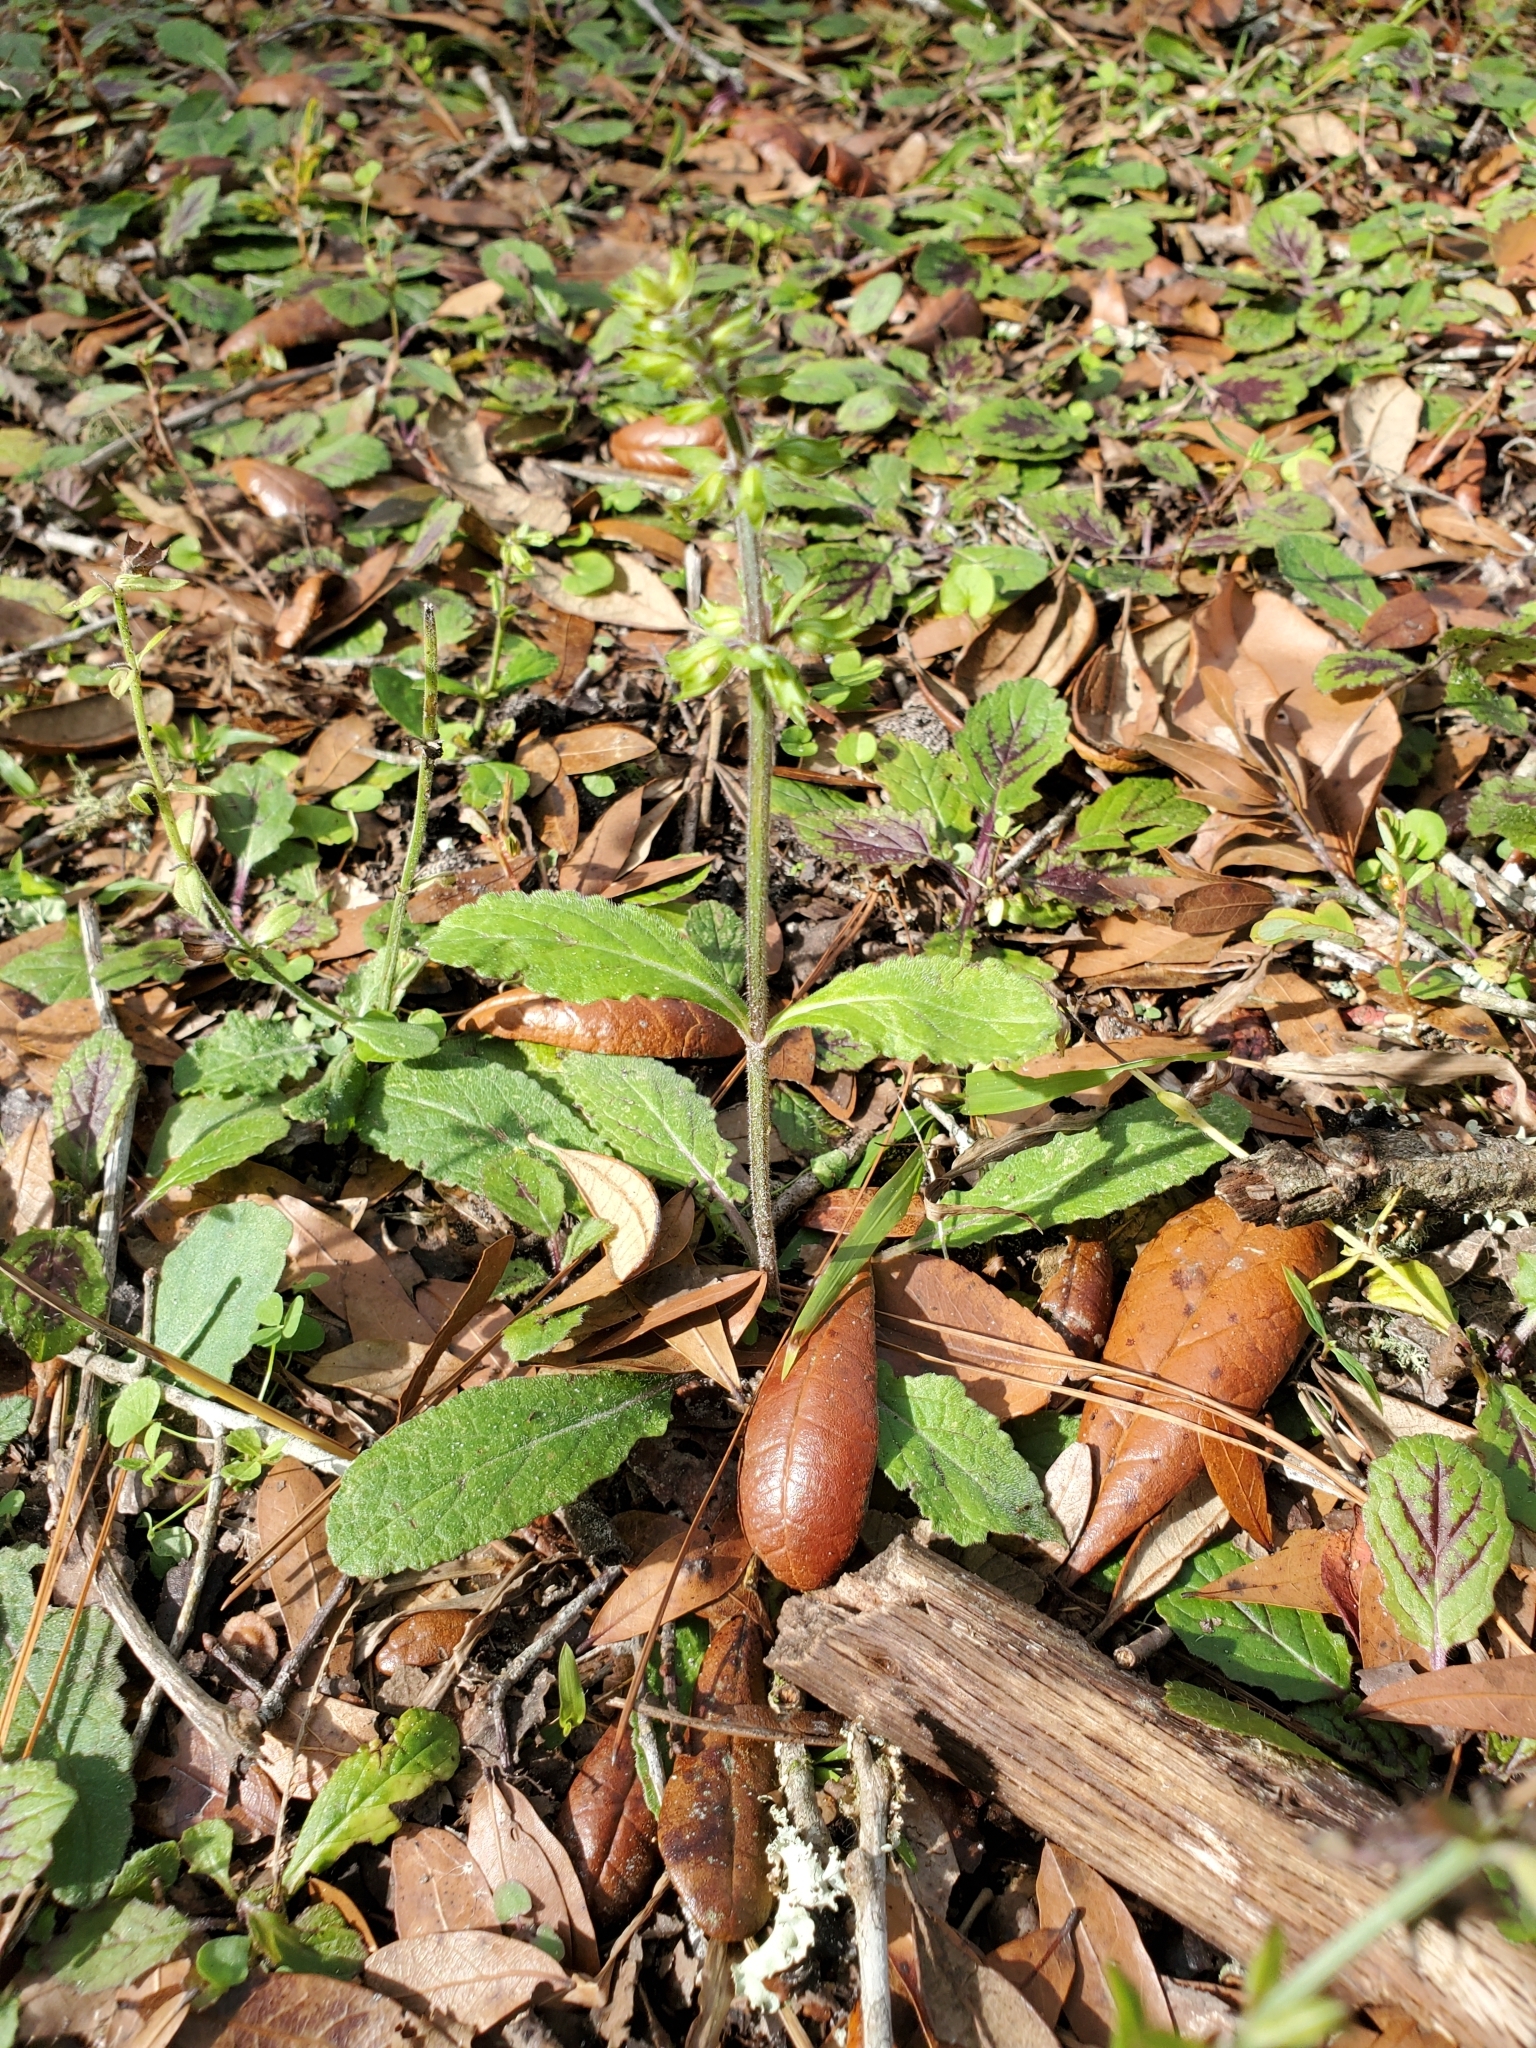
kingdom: Plantae
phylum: Tracheophyta
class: Magnoliopsida
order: Lamiales
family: Lamiaceae
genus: Salvia
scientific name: Salvia lyrata
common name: Cancerweed
